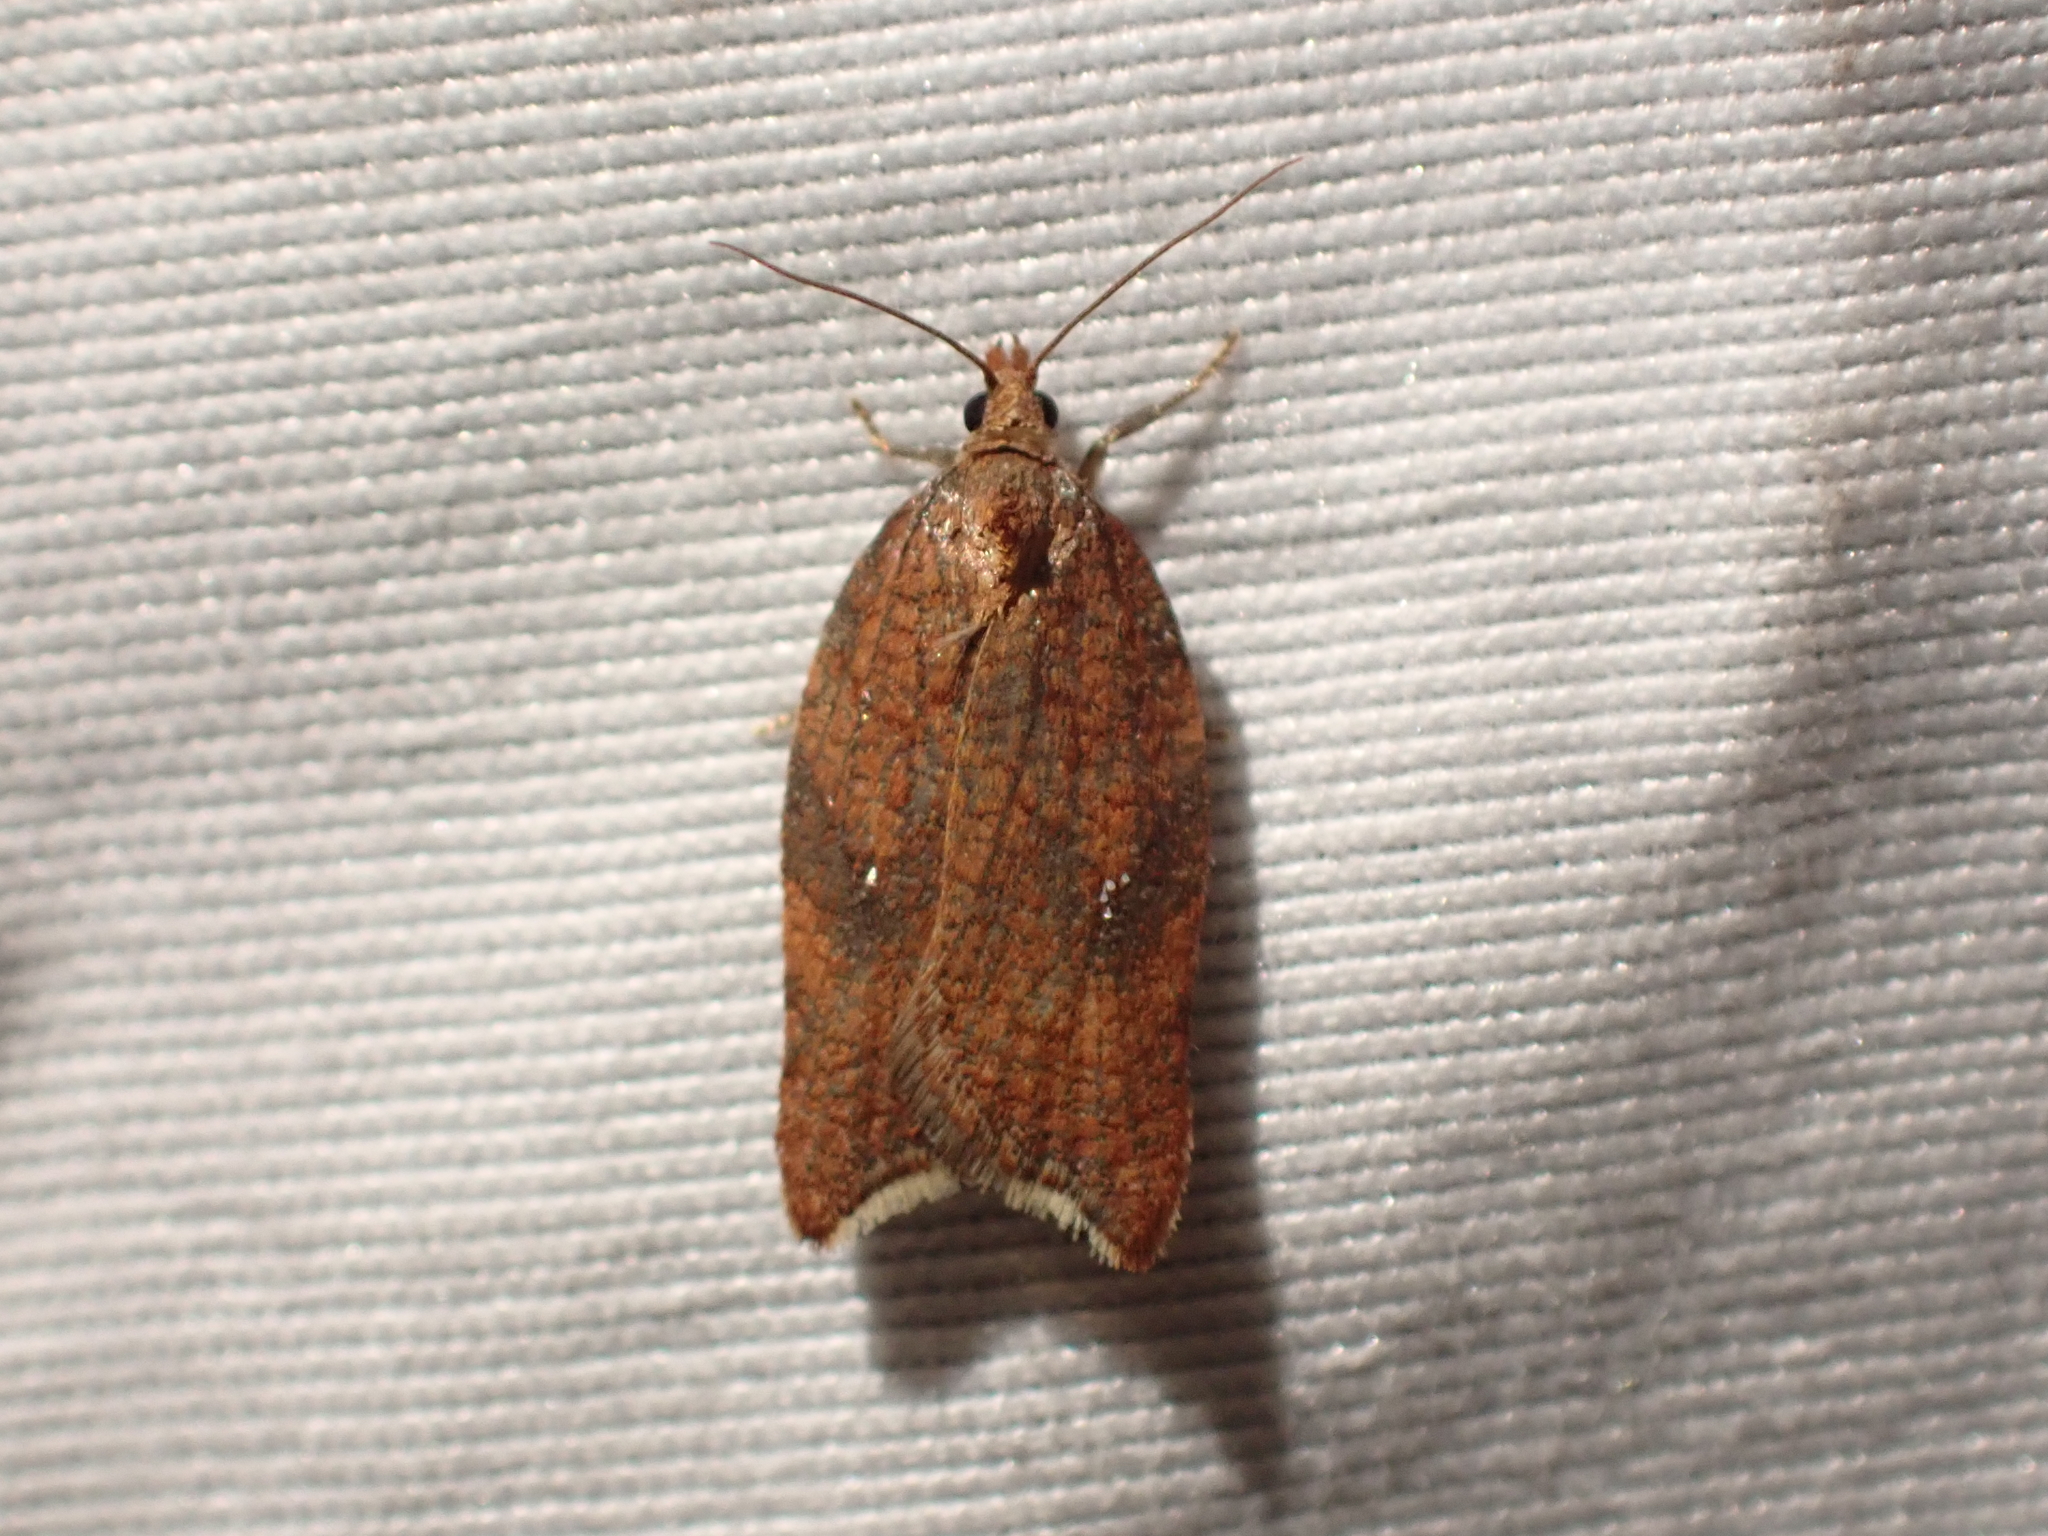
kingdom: Animalia
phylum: Arthropoda
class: Insecta
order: Lepidoptera
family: Tortricidae
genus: Acleris
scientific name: Acleris rhombana
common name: Tortricid moth
